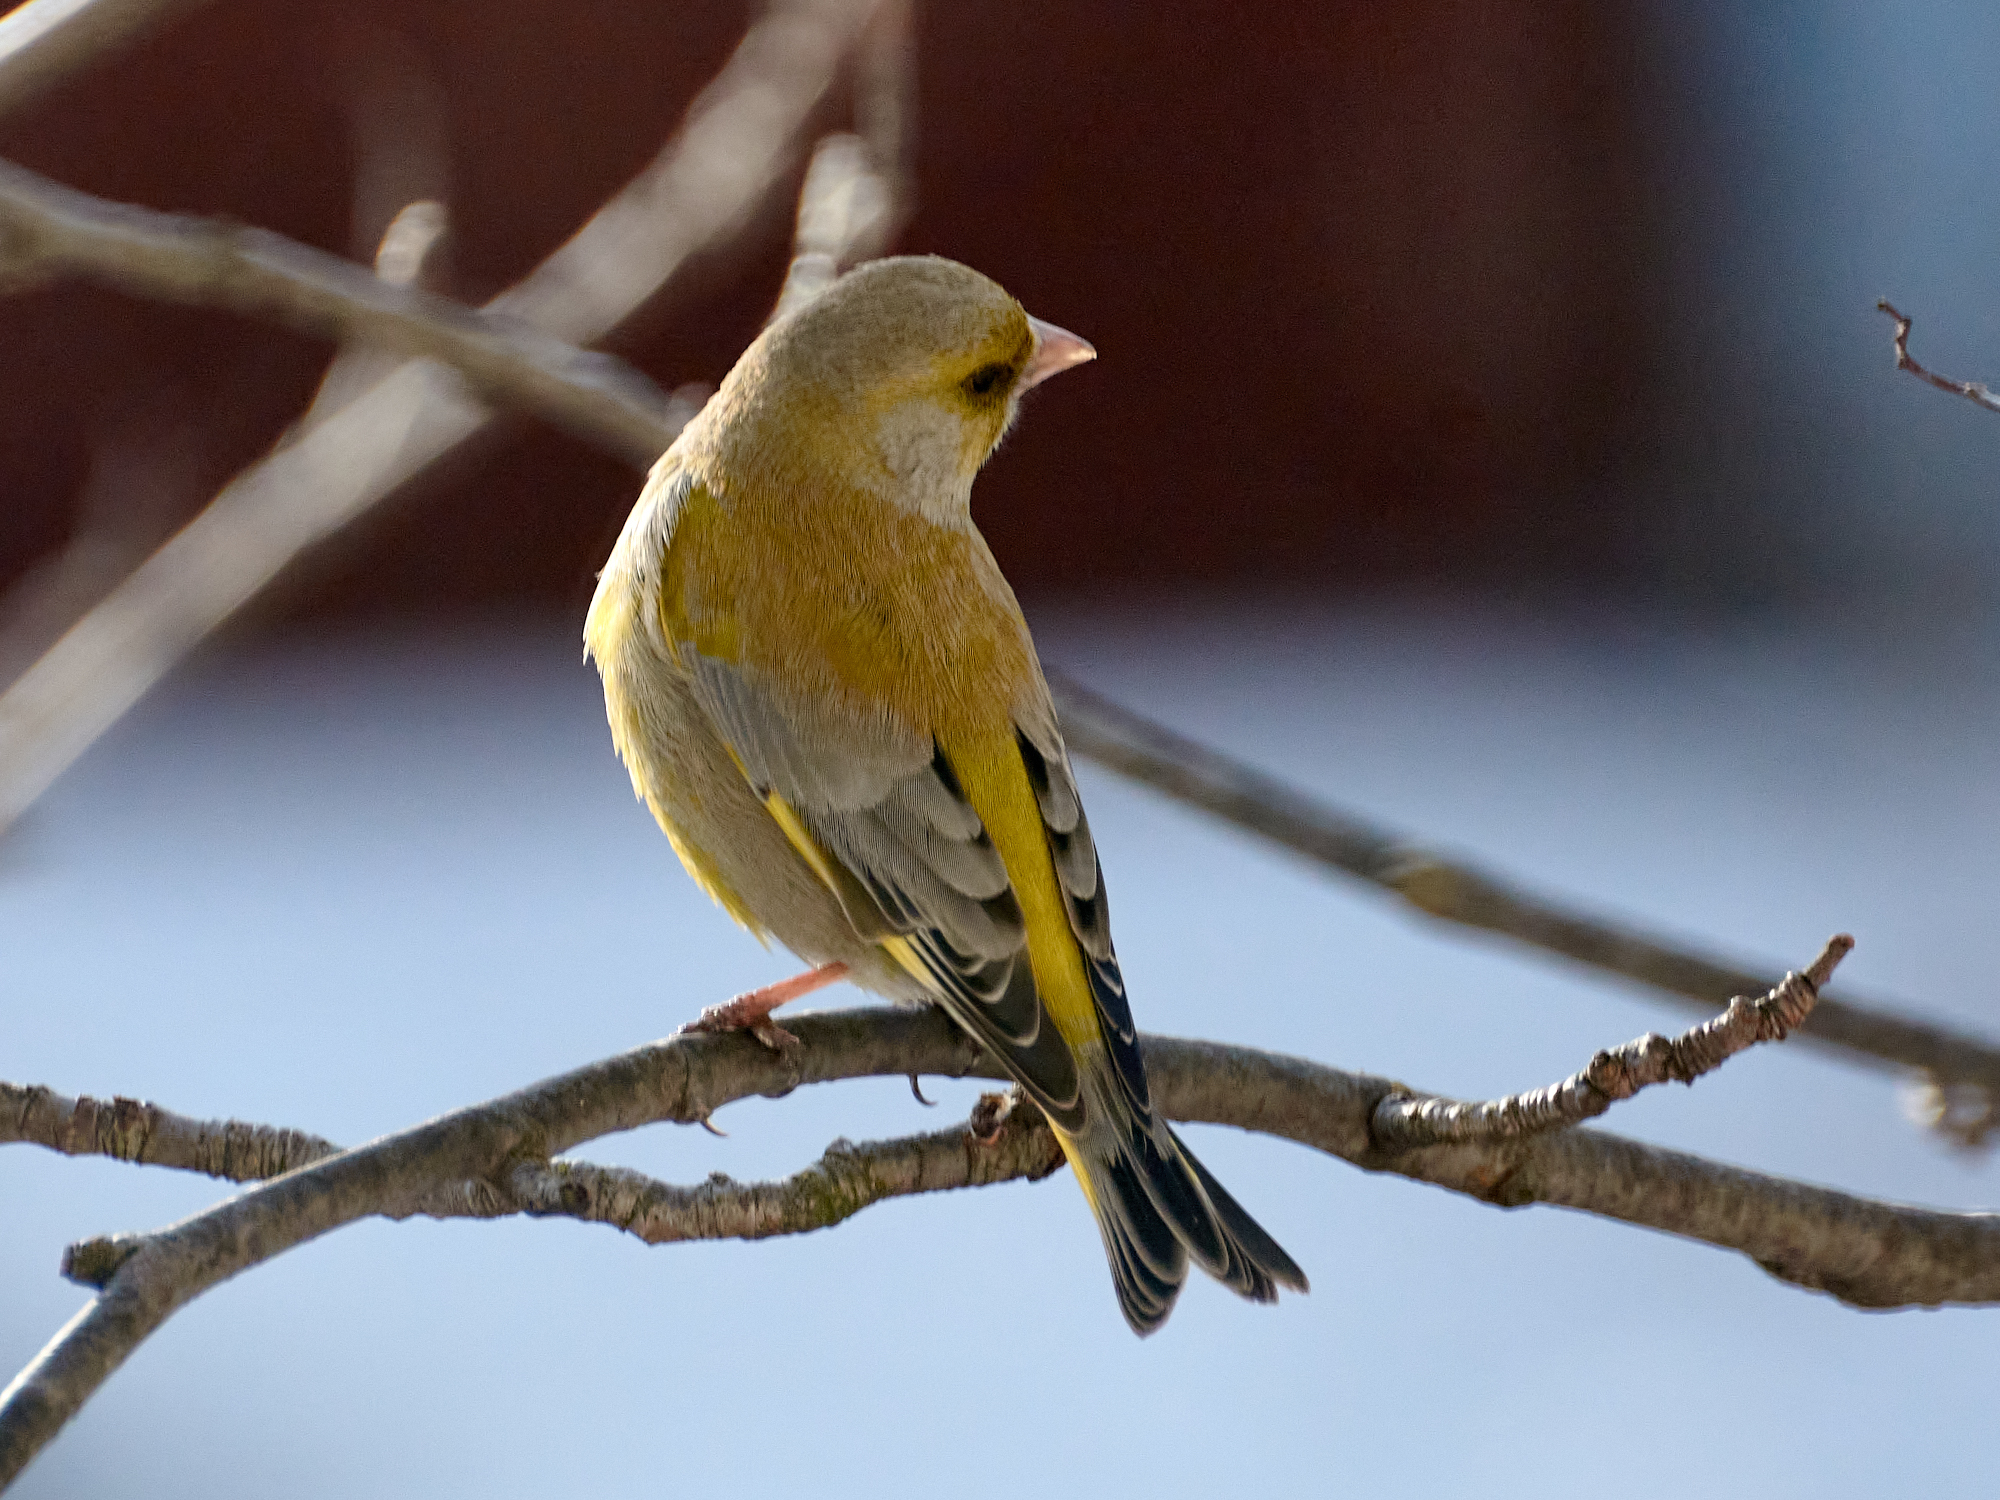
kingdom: Plantae
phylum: Tracheophyta
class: Liliopsida
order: Poales
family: Poaceae
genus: Chloris
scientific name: Chloris chloris
